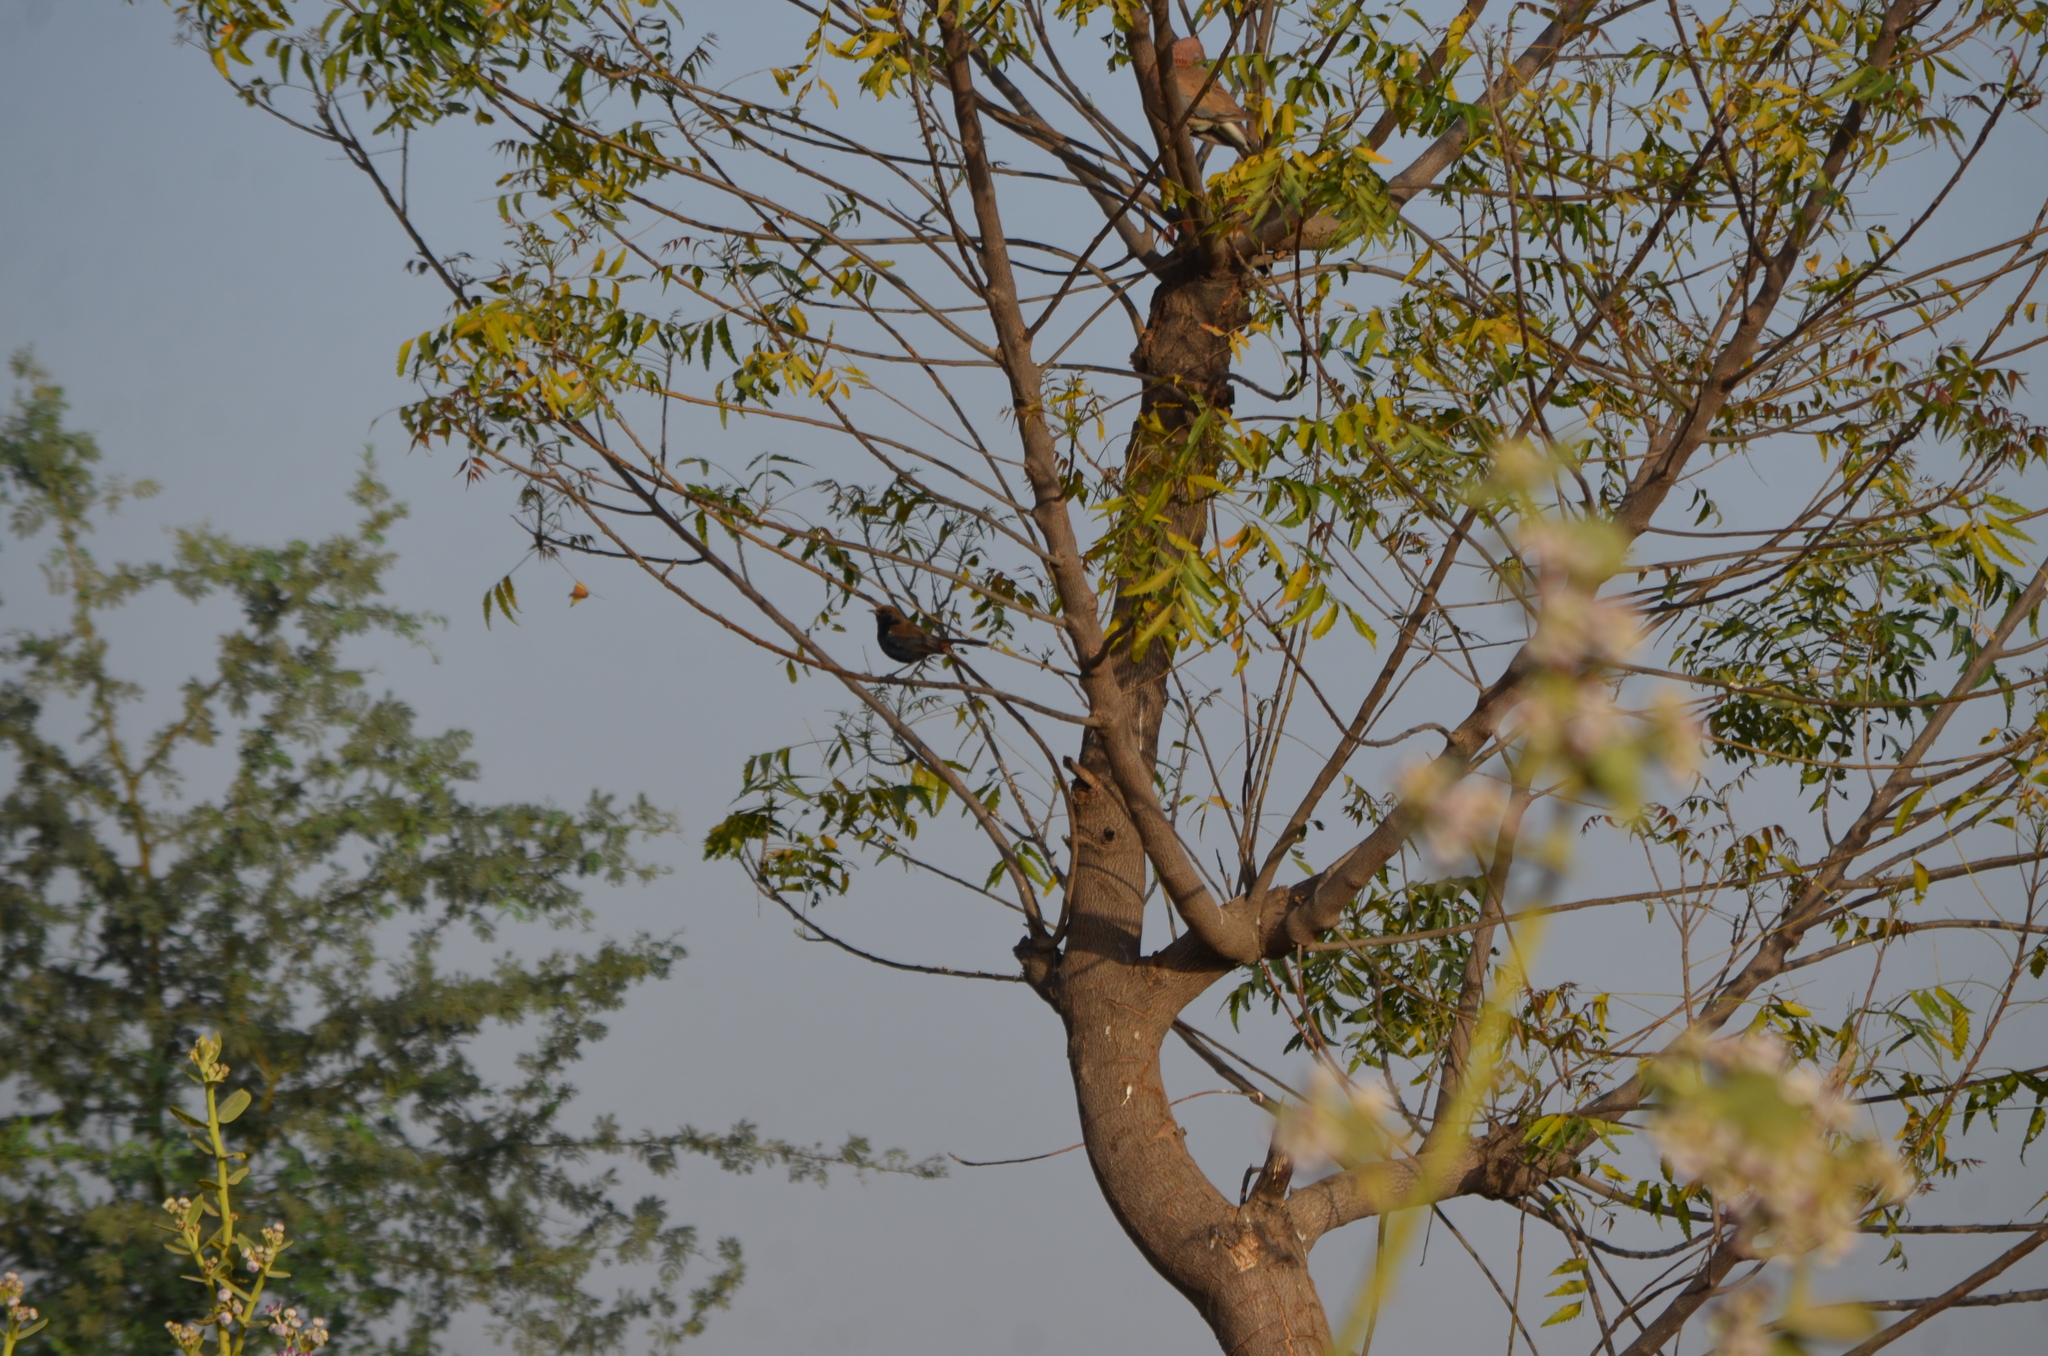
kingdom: Animalia
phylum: Chordata
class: Aves
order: Passeriformes
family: Muscicapidae
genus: Saxicoloides
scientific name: Saxicoloides fulicatus
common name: Indian robin
